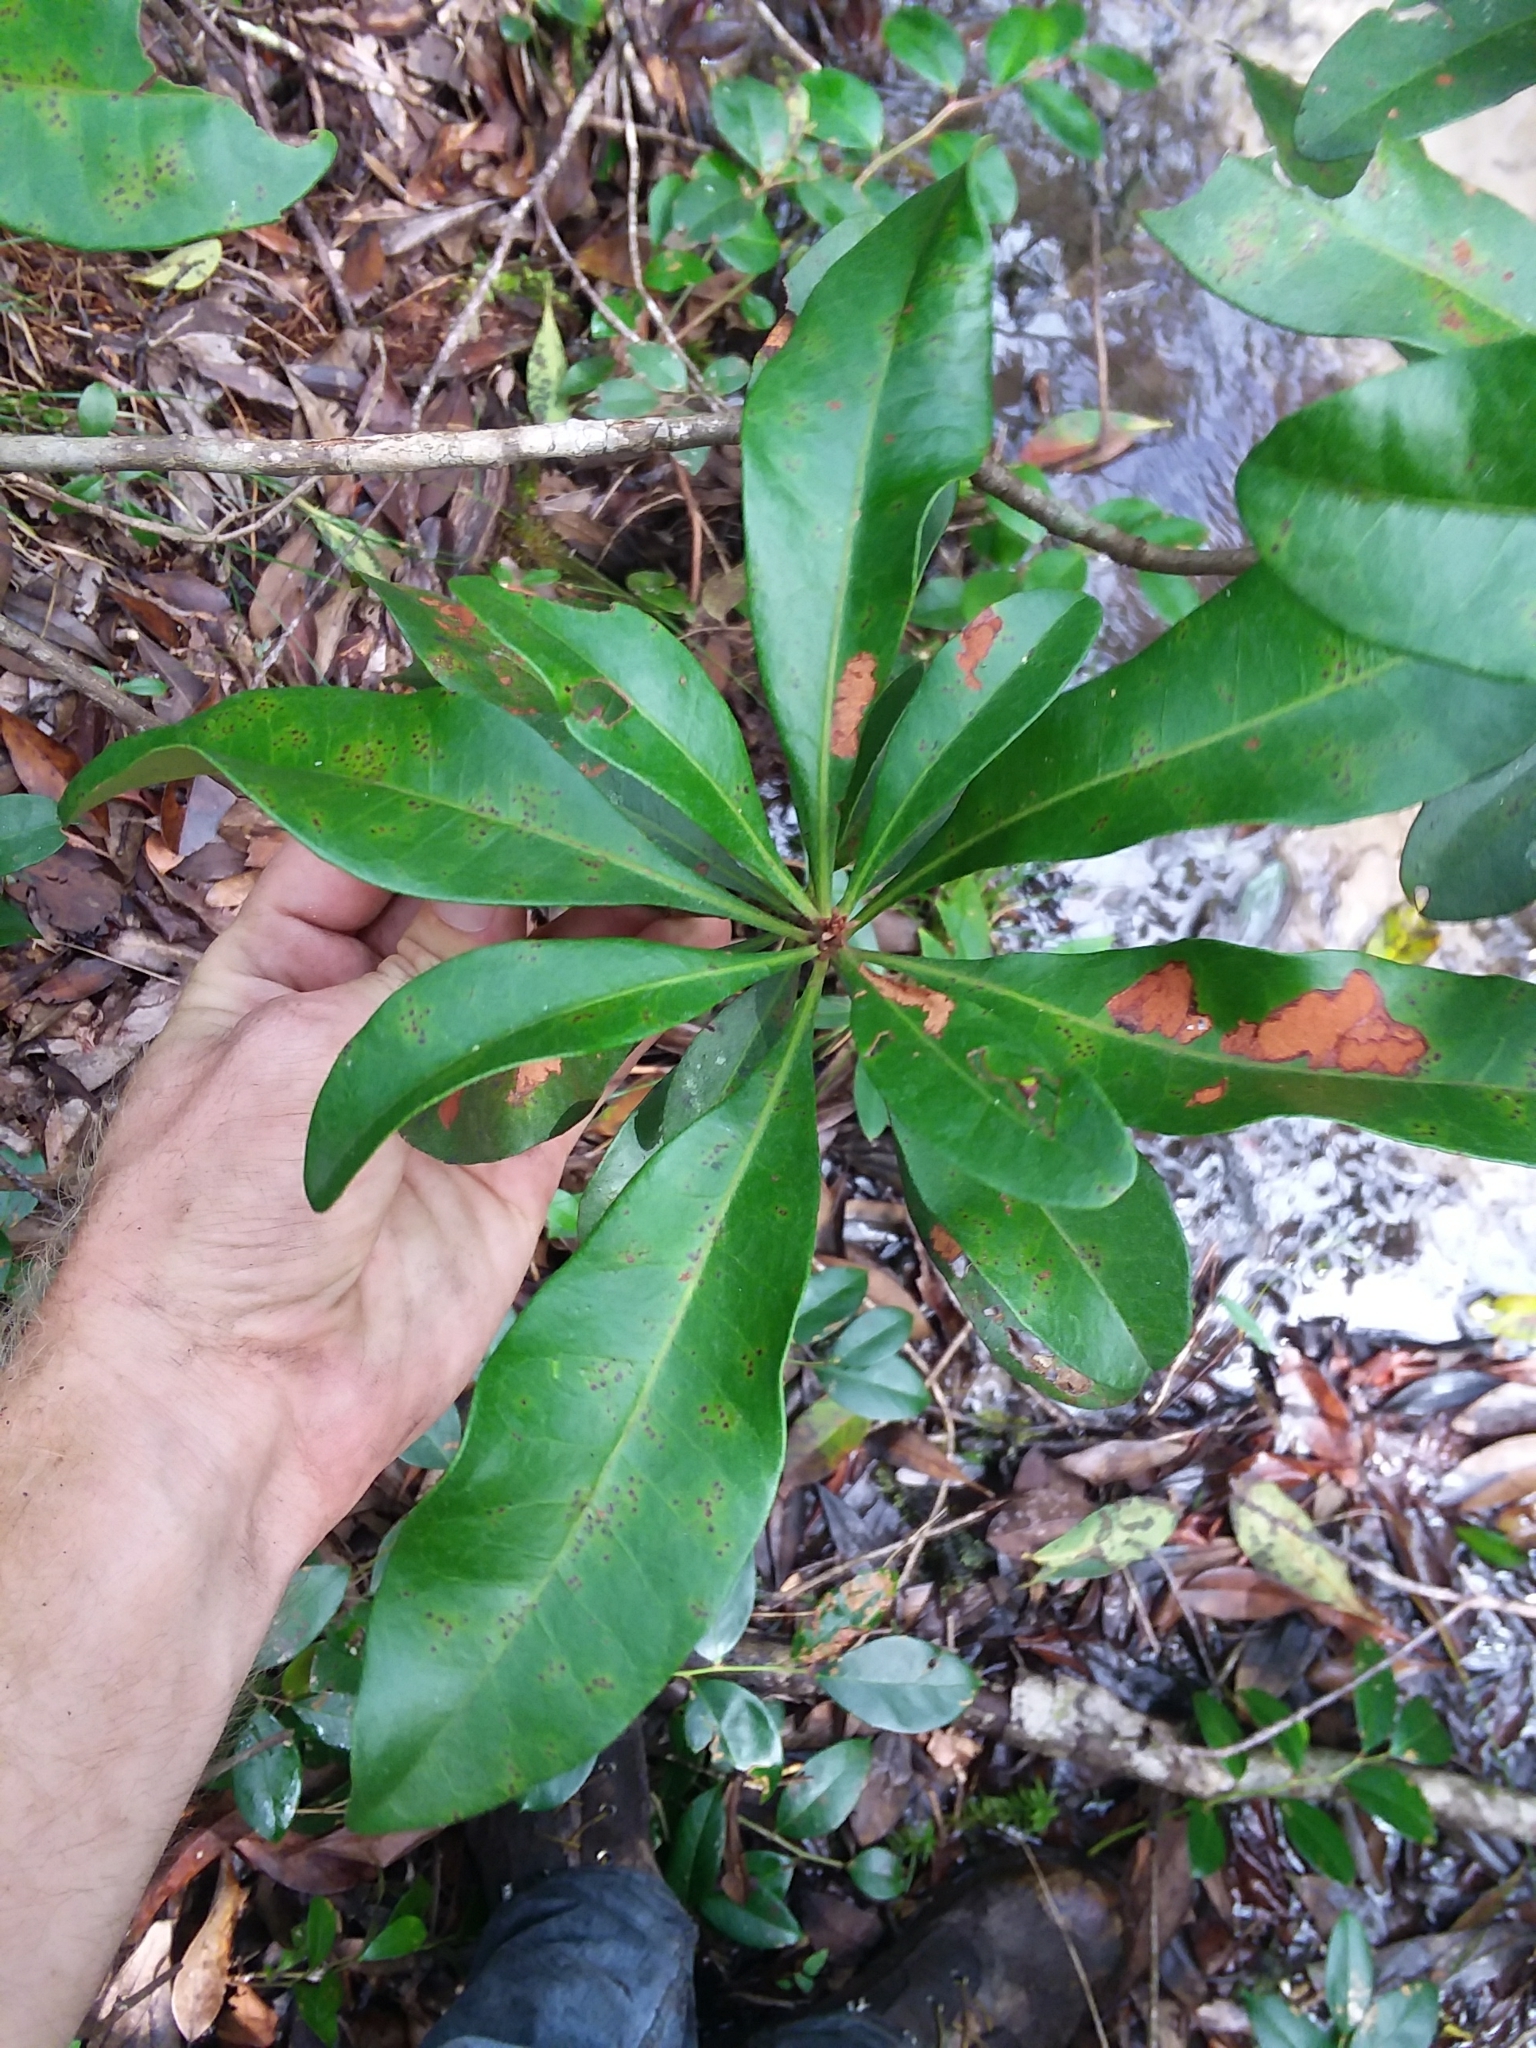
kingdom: Plantae
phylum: Tracheophyta
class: Magnoliopsida
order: Fagales
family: Myricaceae
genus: Morella
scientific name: Morella inodora
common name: Candle-berry
